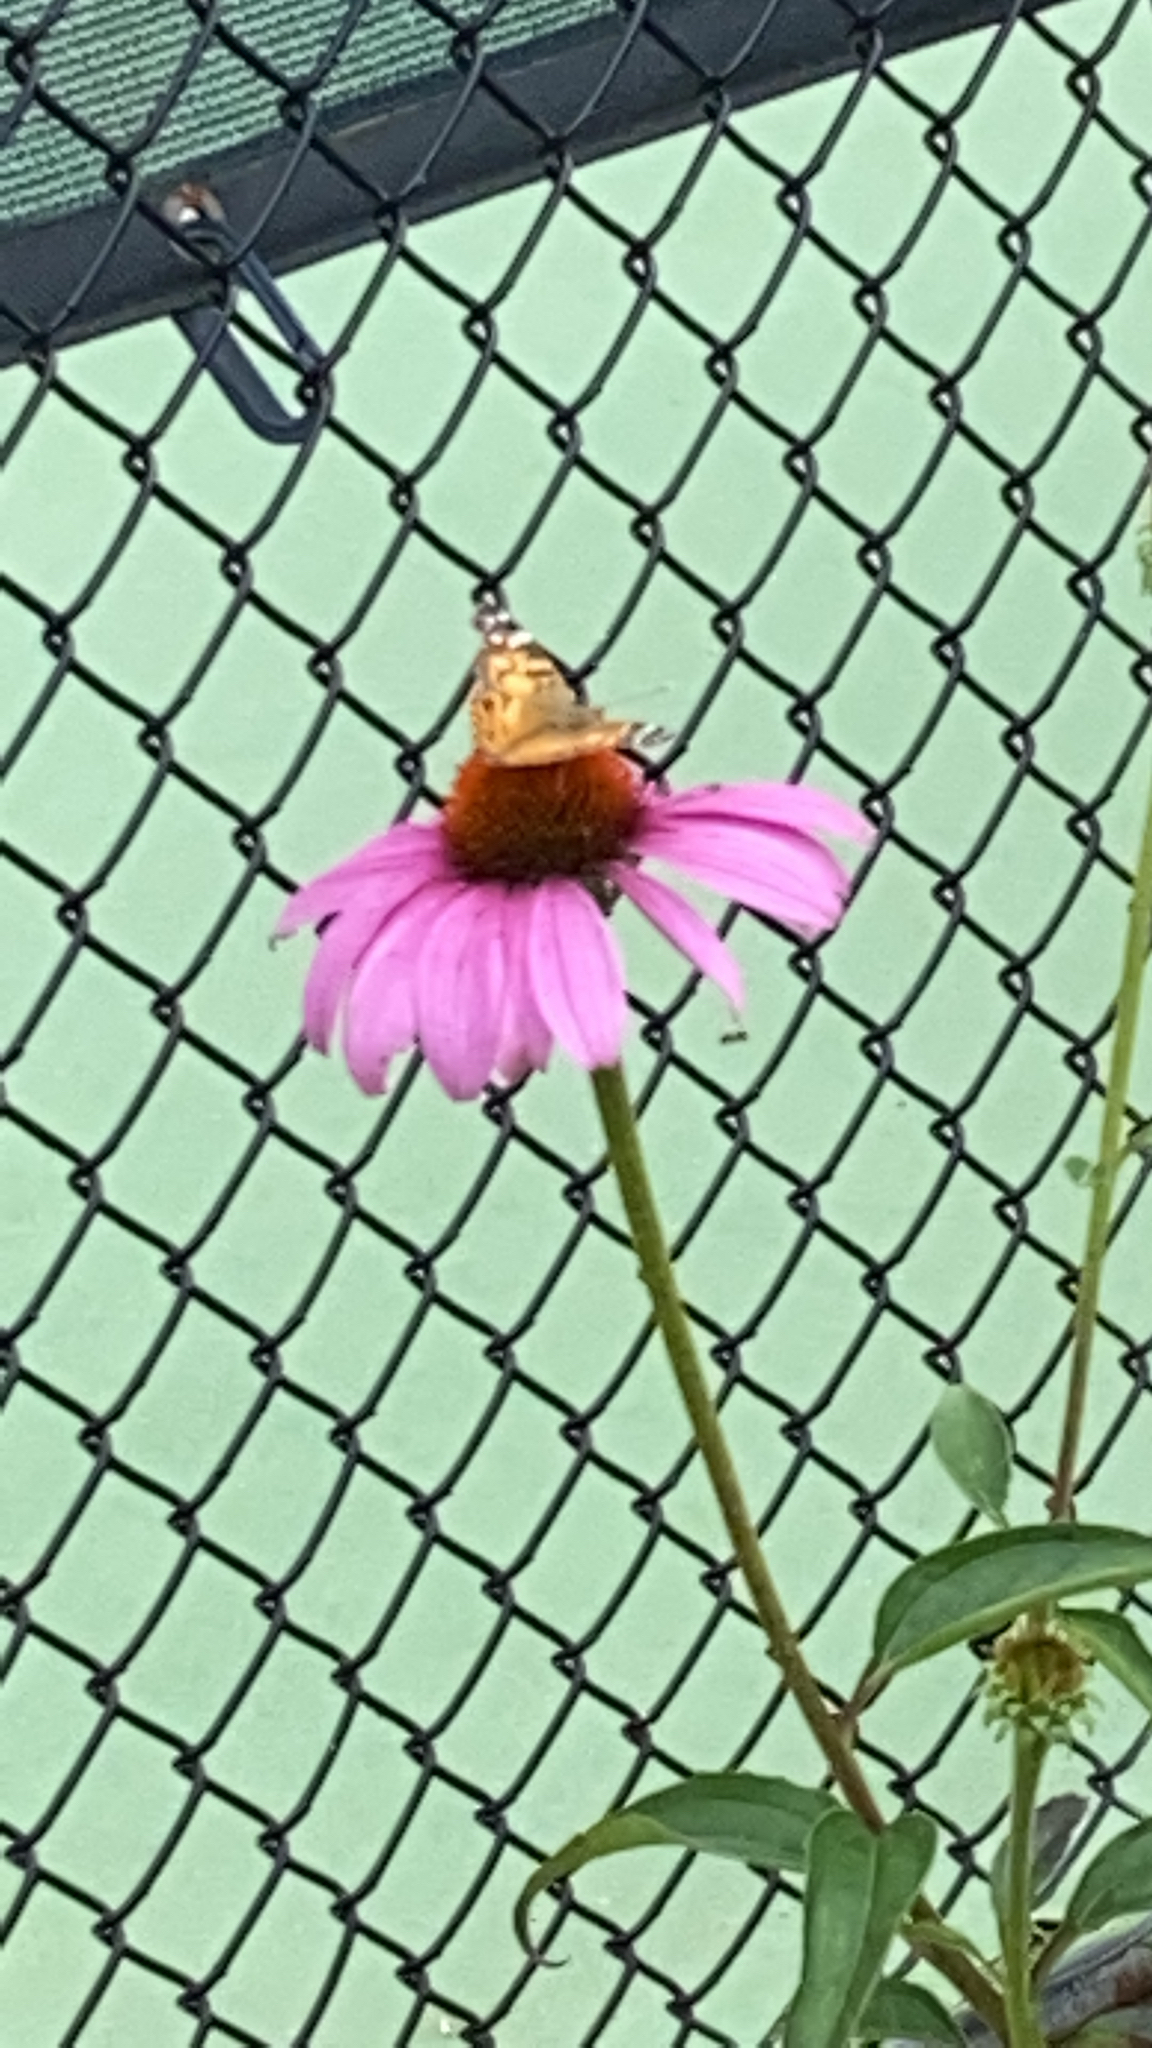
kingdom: Animalia
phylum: Arthropoda
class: Insecta
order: Lepidoptera
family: Nymphalidae
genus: Vanessa
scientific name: Vanessa virginiensis
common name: American lady
